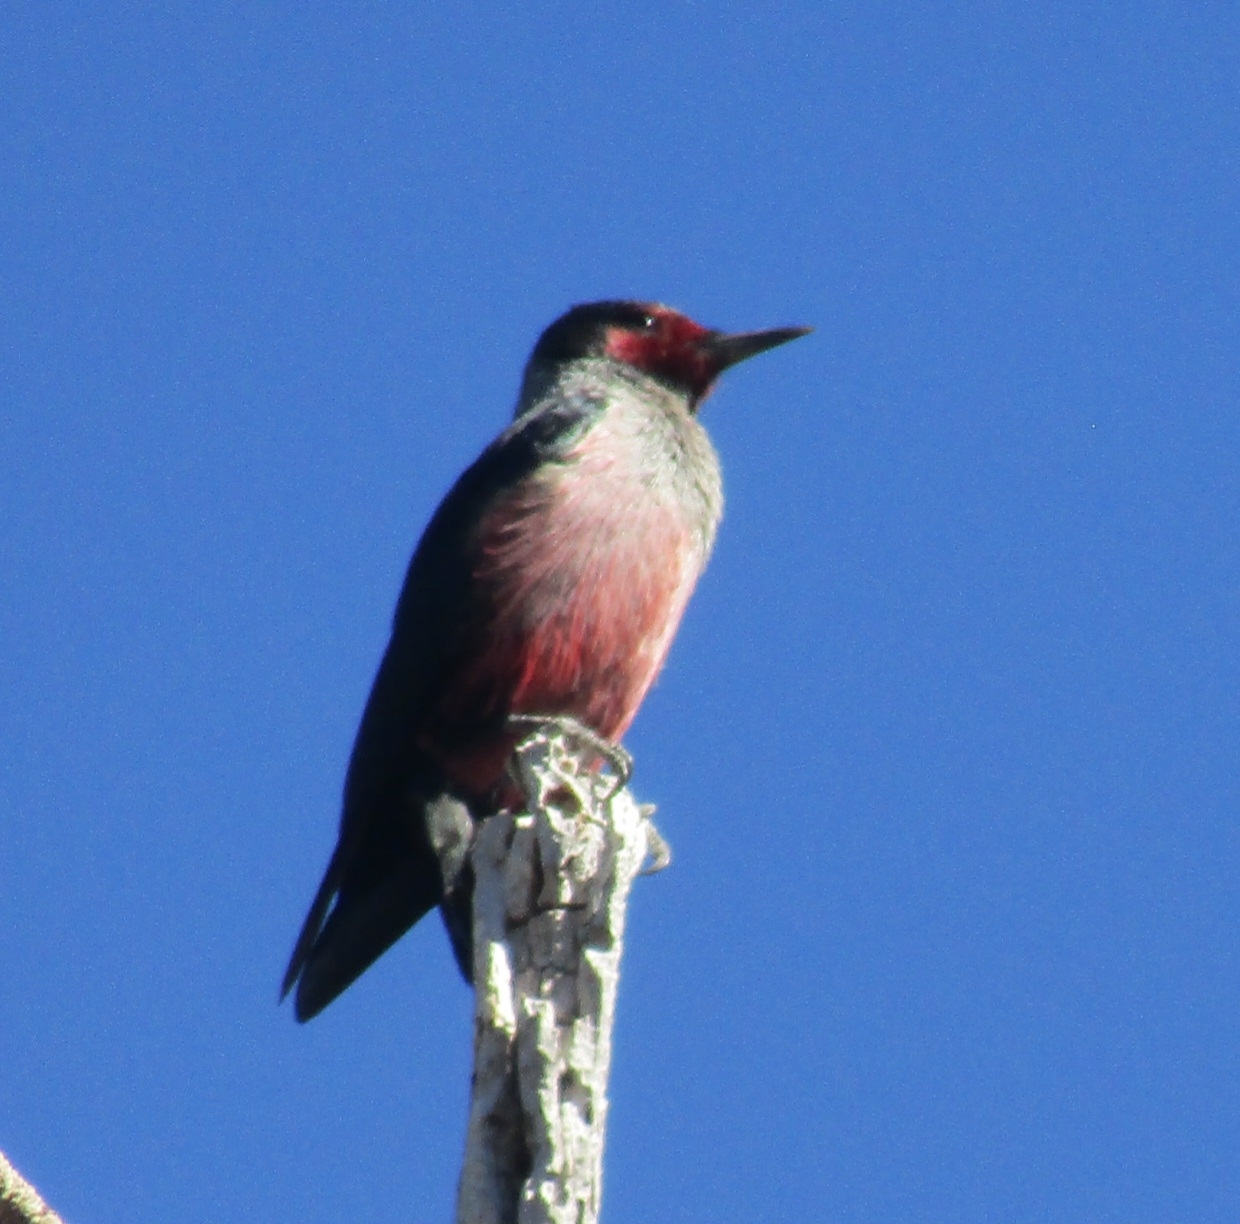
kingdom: Animalia
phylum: Chordata
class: Aves
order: Piciformes
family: Picidae
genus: Melanerpes
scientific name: Melanerpes lewis
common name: Lewis's woodpecker
